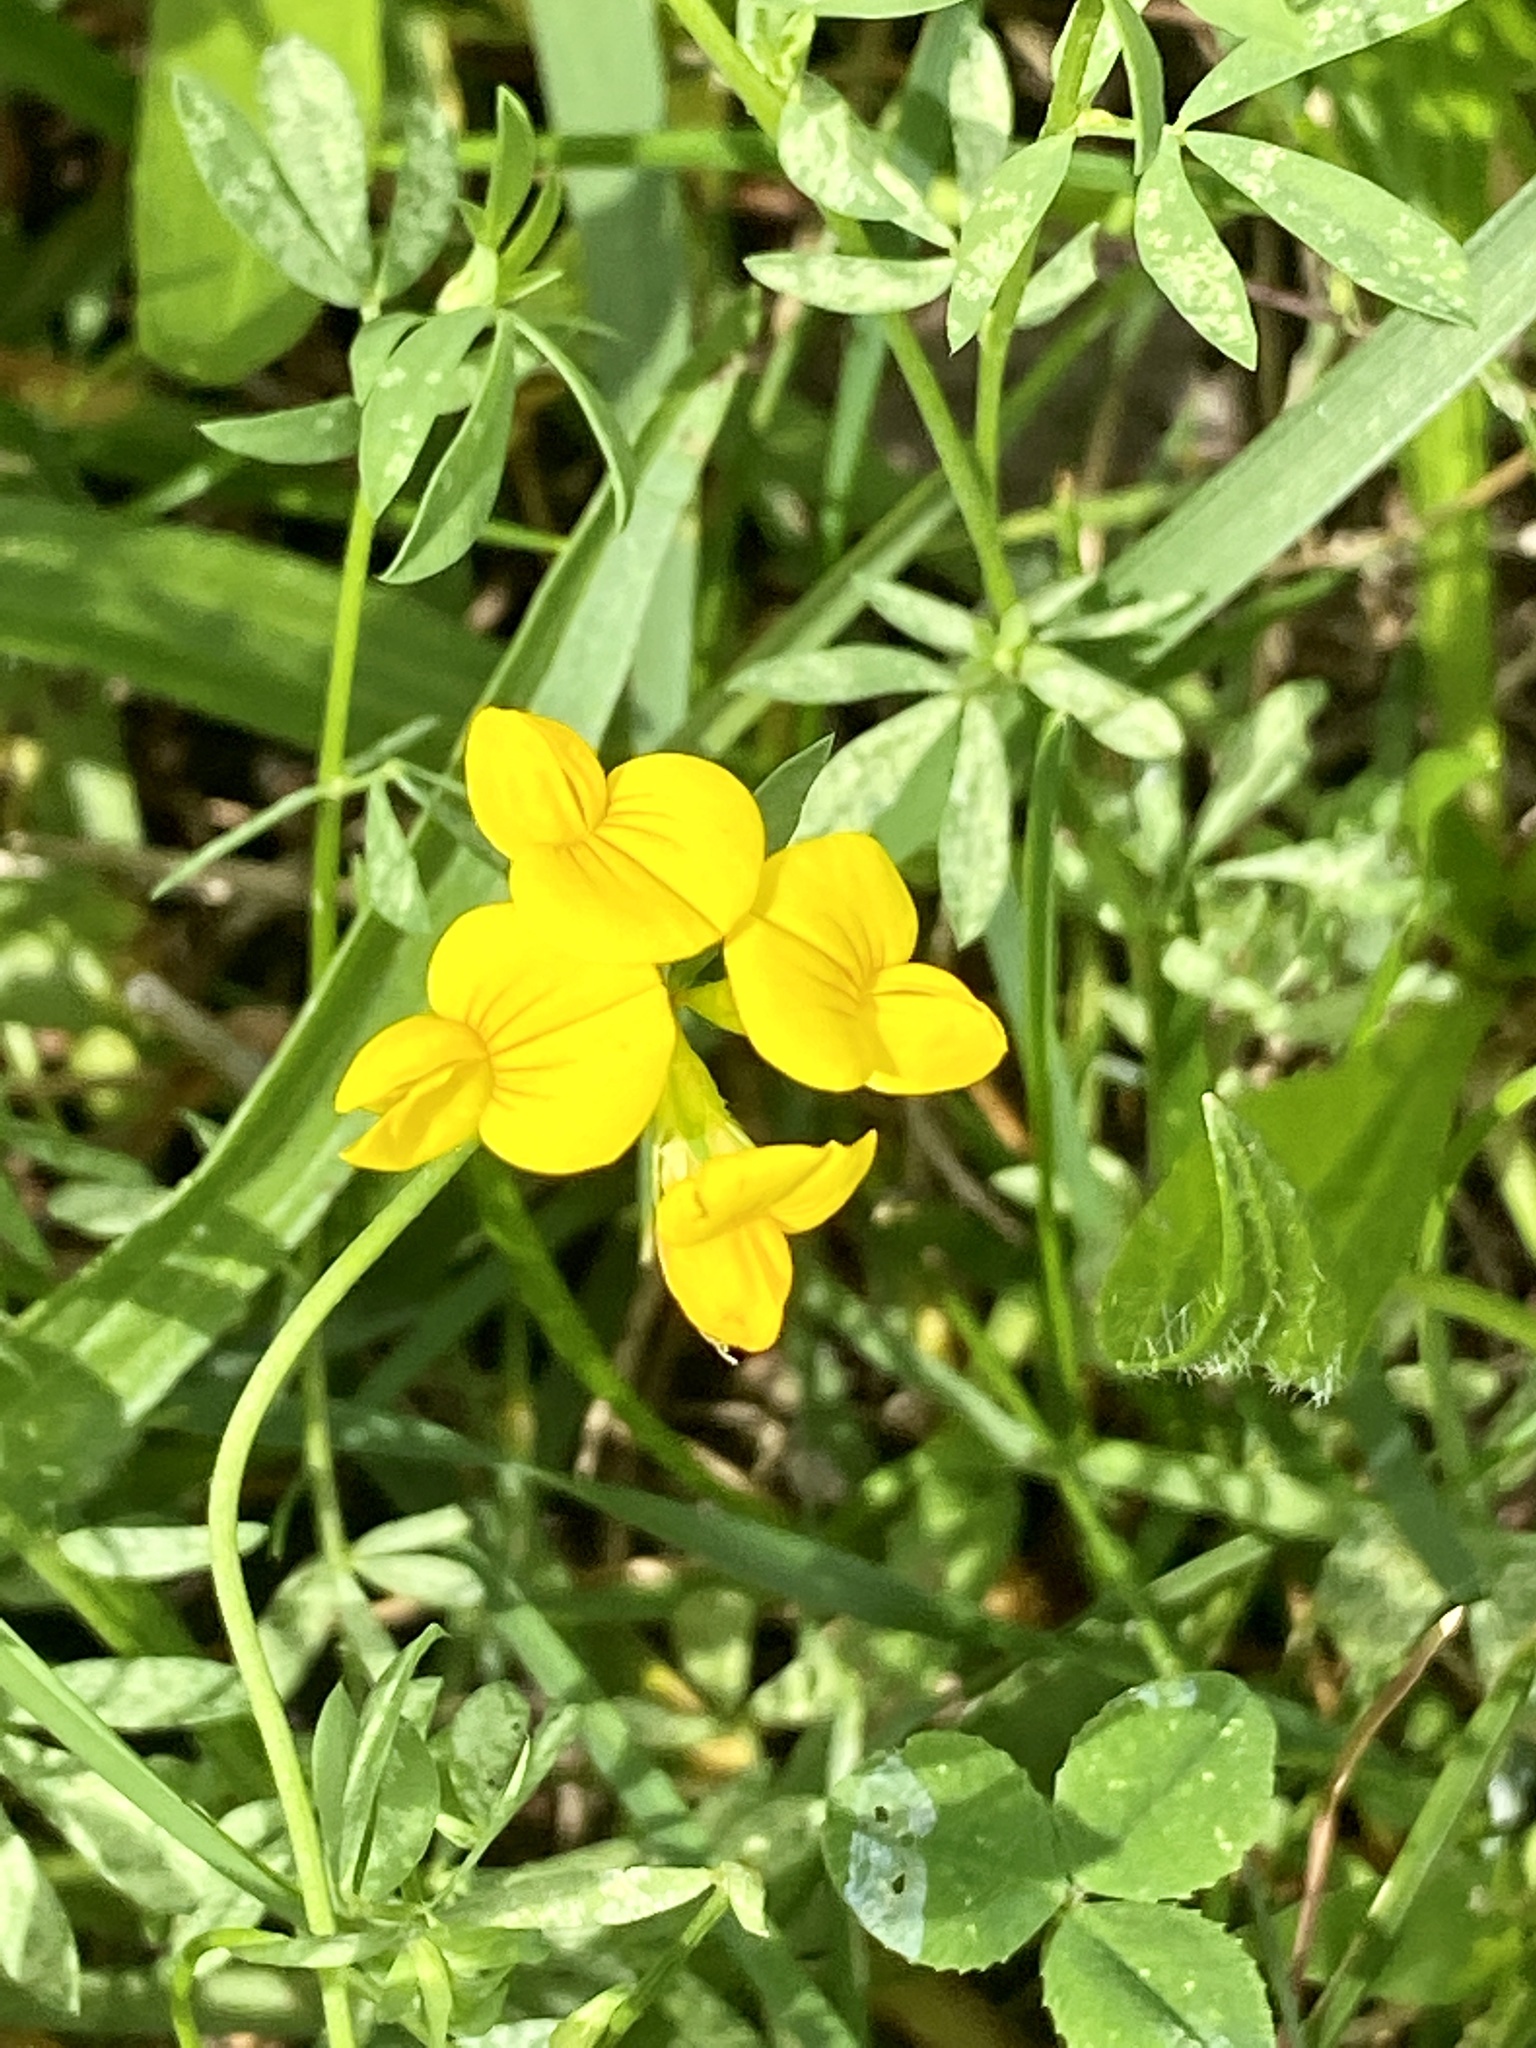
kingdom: Plantae
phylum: Tracheophyta
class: Magnoliopsida
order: Fabales
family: Fabaceae
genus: Lotus
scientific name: Lotus corniculatus
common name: Common bird's-foot-trefoil
